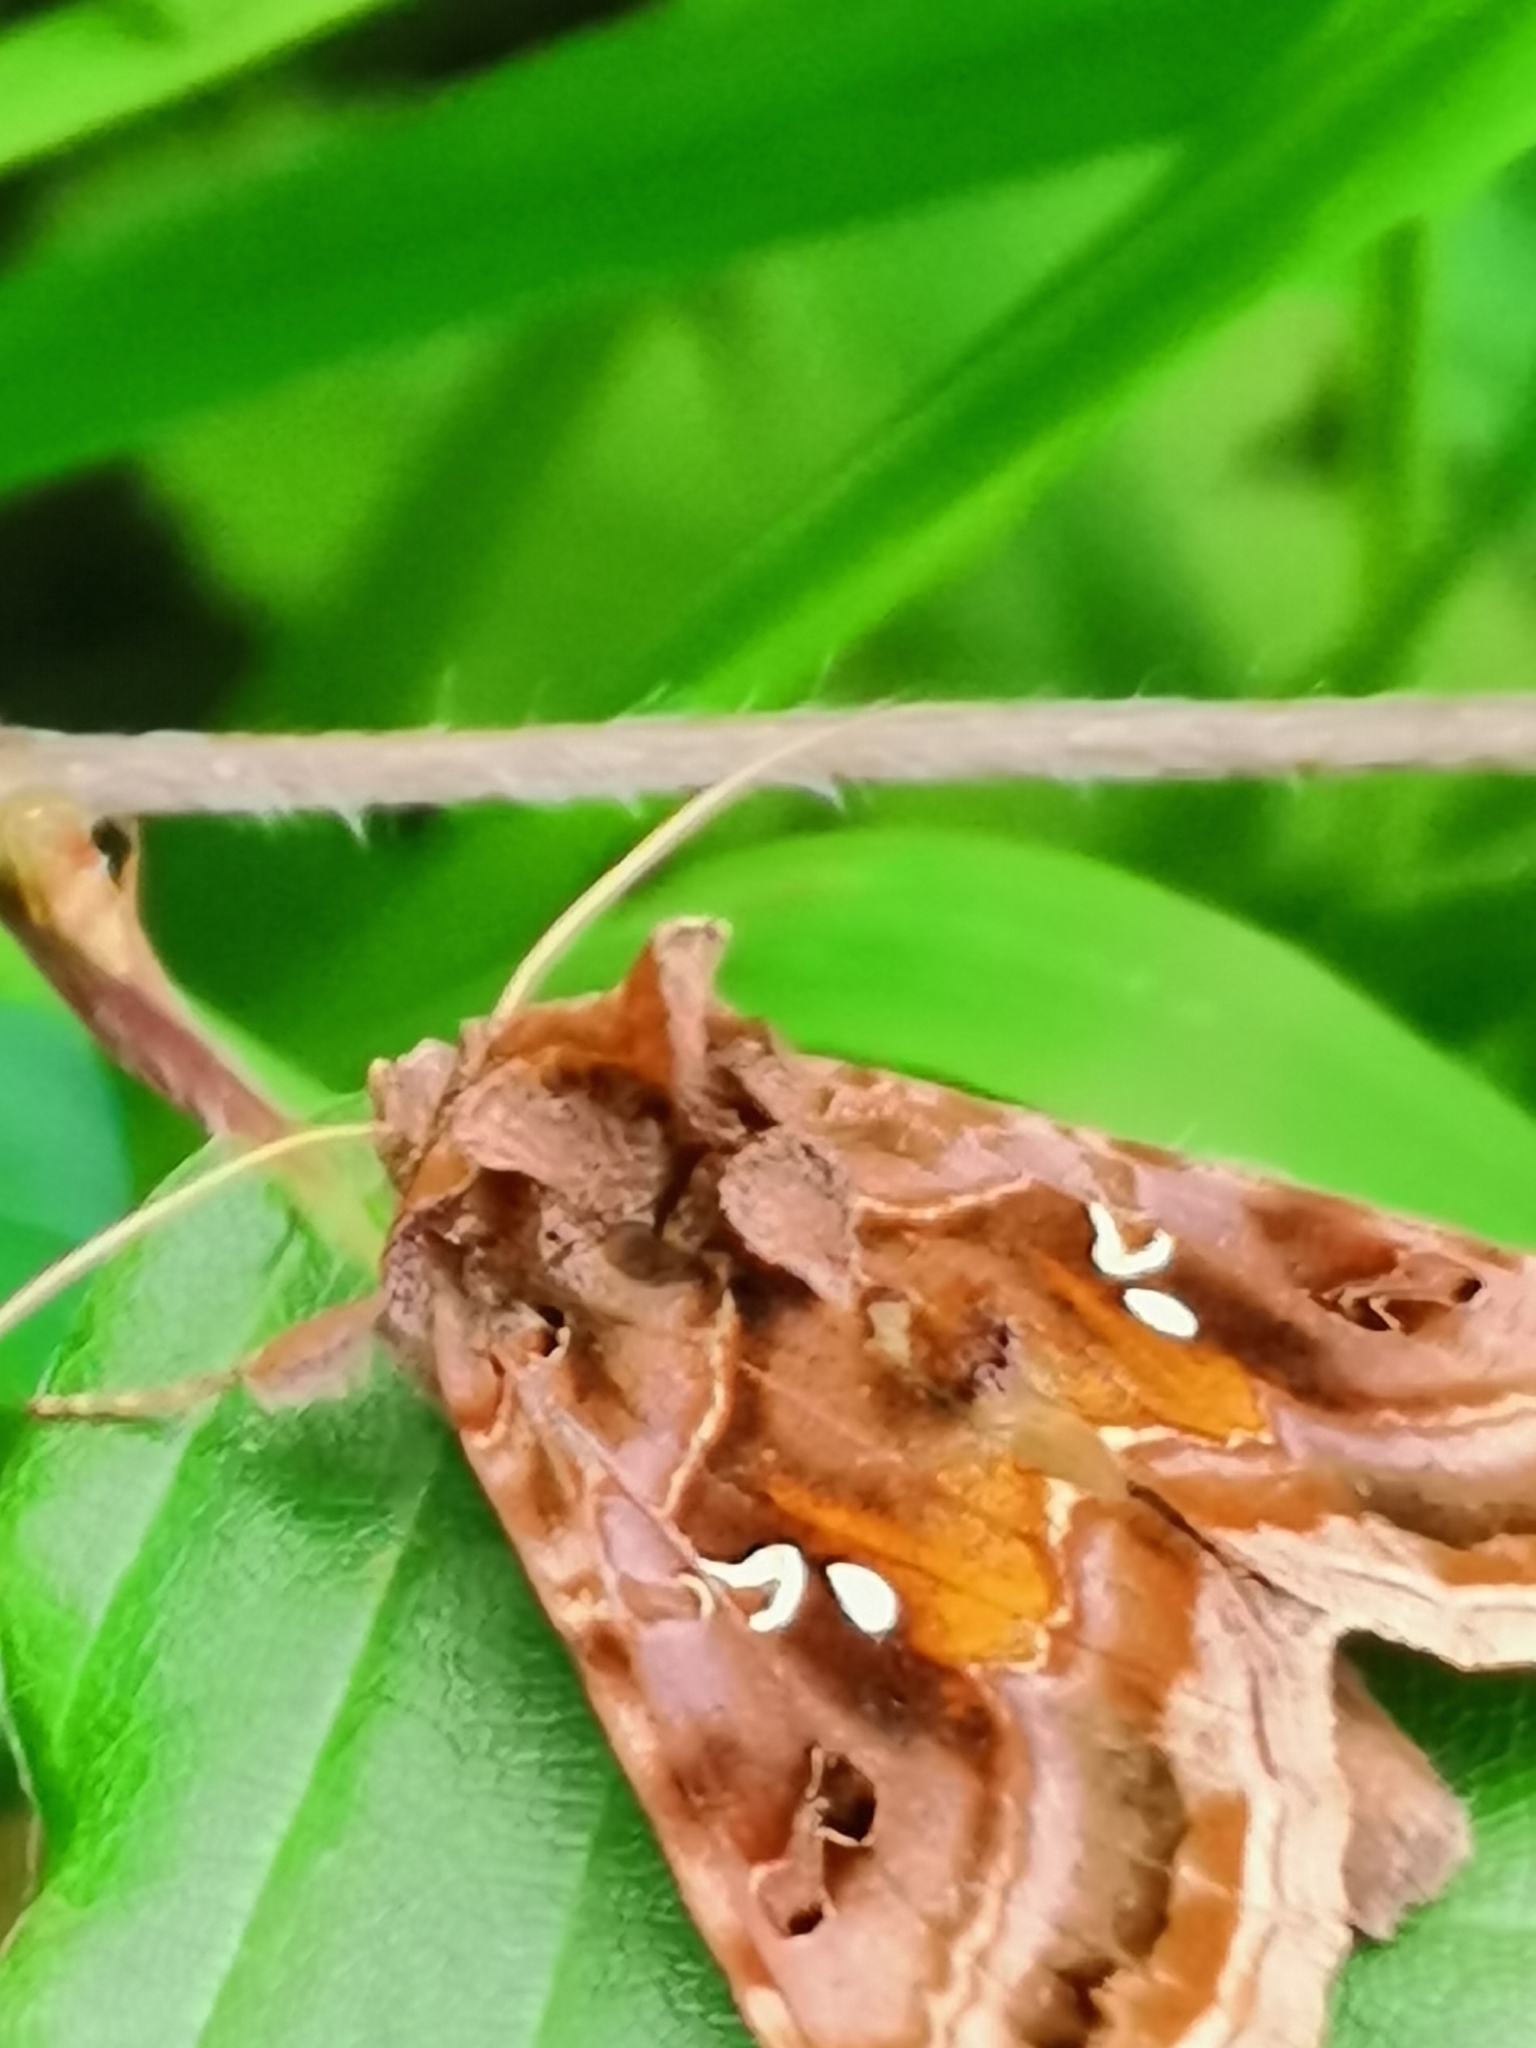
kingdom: Animalia
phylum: Arthropoda
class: Insecta
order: Lepidoptera
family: Noctuidae
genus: Autographa
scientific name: Autographa pulchrina
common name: Beautiful golden y
